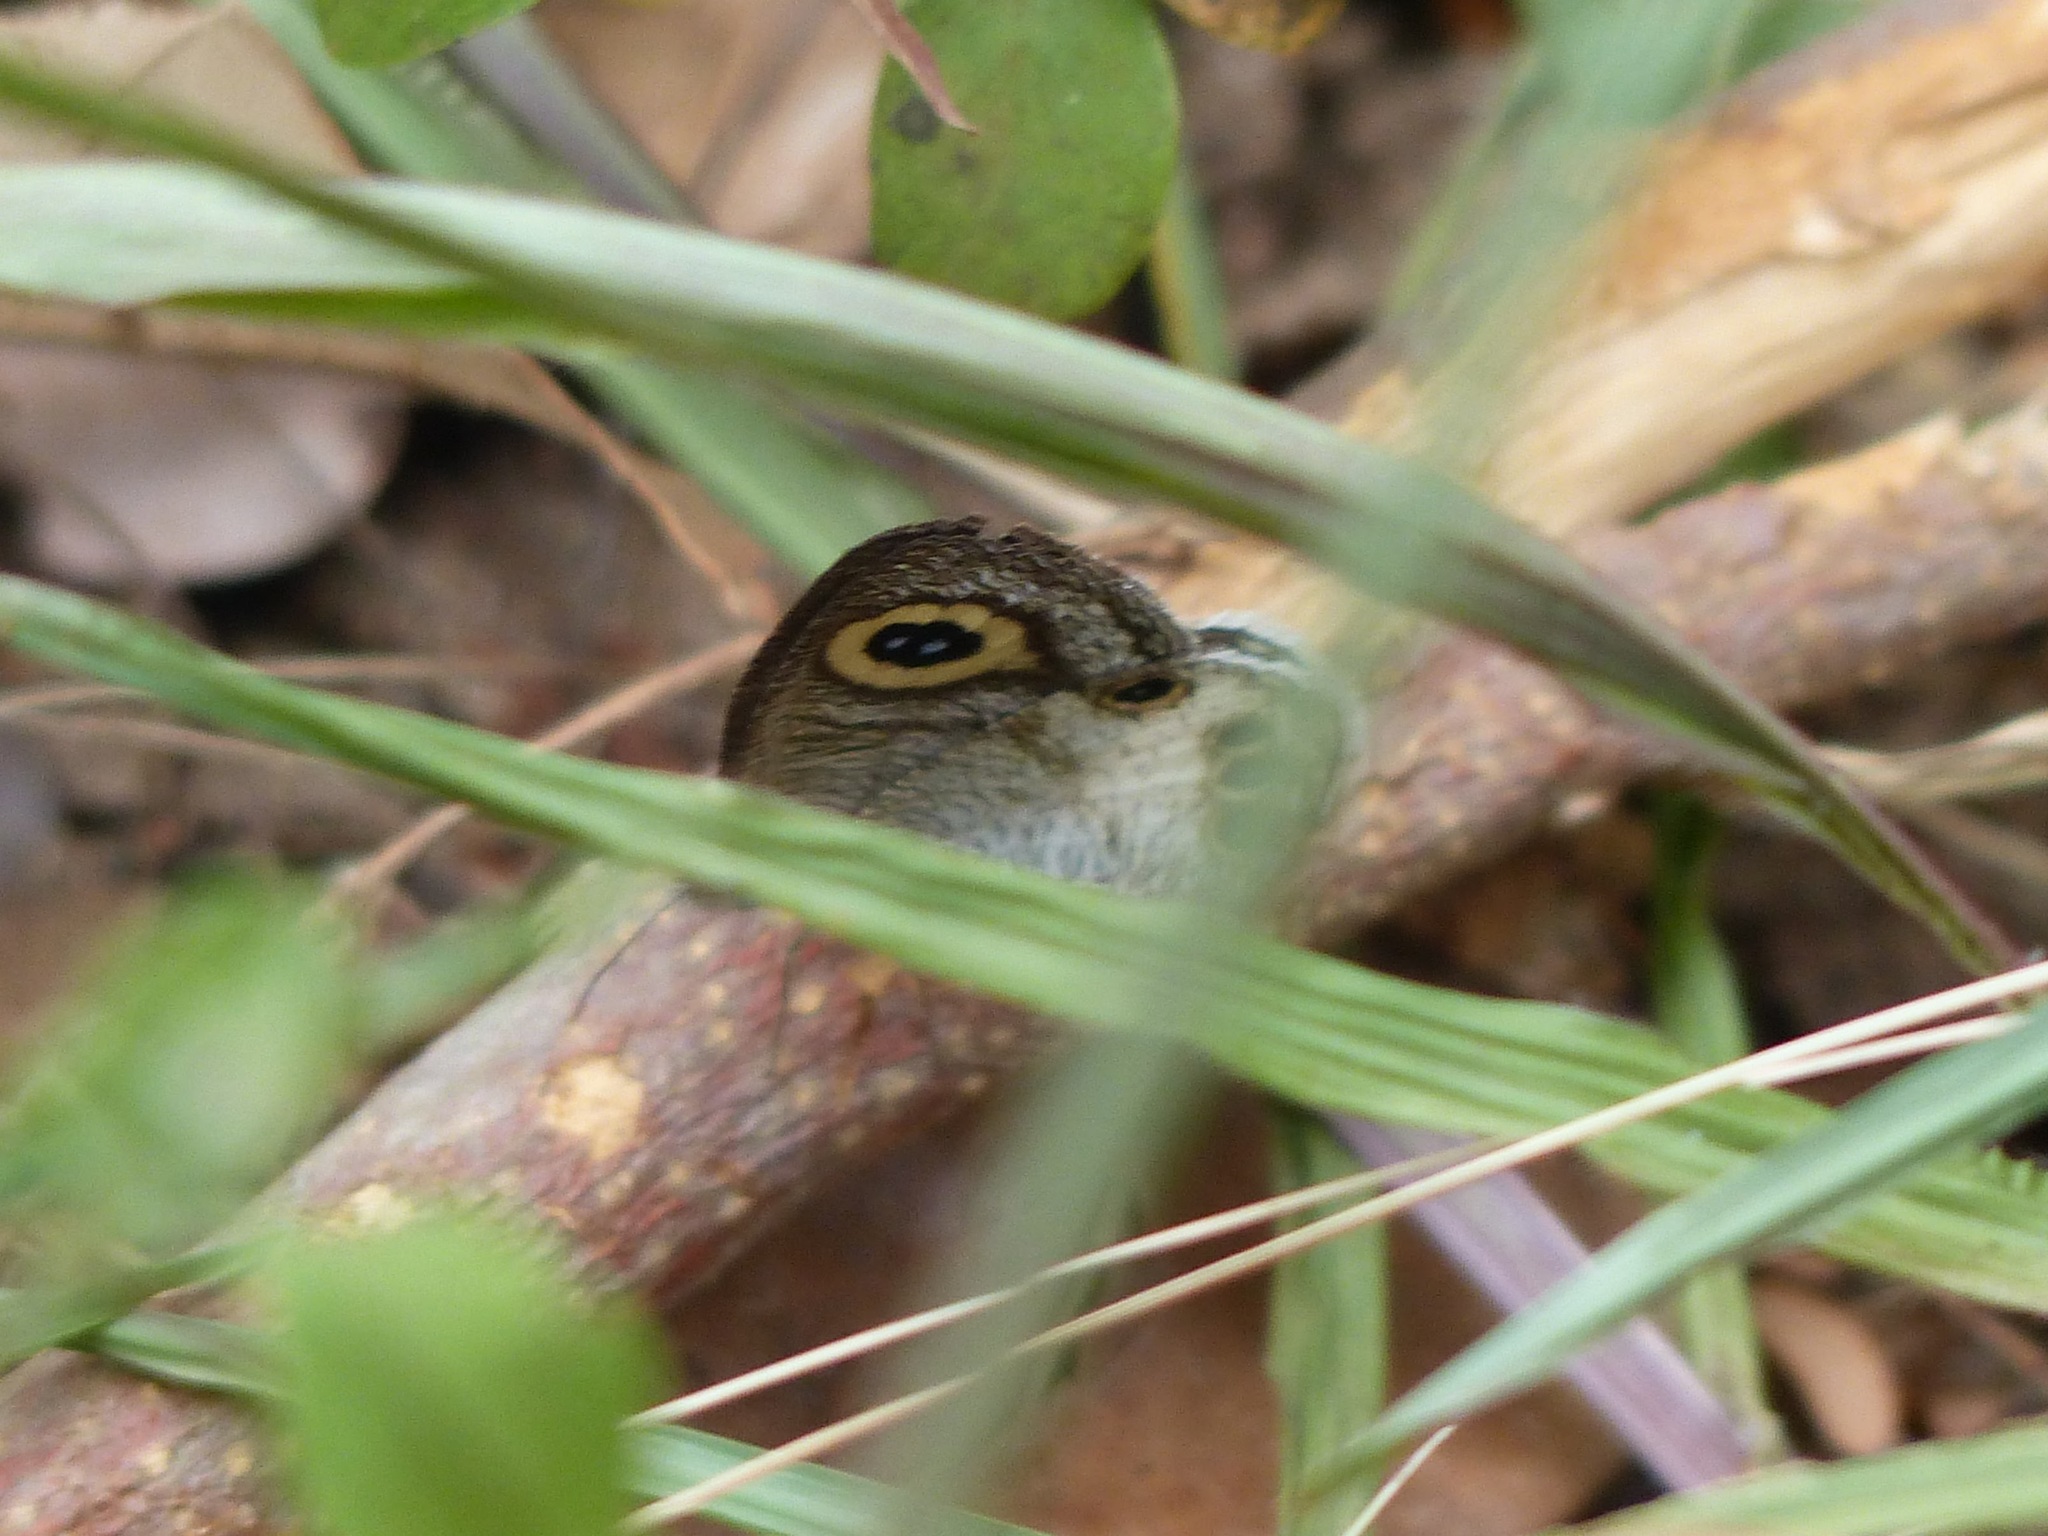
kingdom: Animalia
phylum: Arthropoda
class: Insecta
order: Lepidoptera
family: Nymphalidae
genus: Ypthima
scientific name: Ypthima ceylonica
